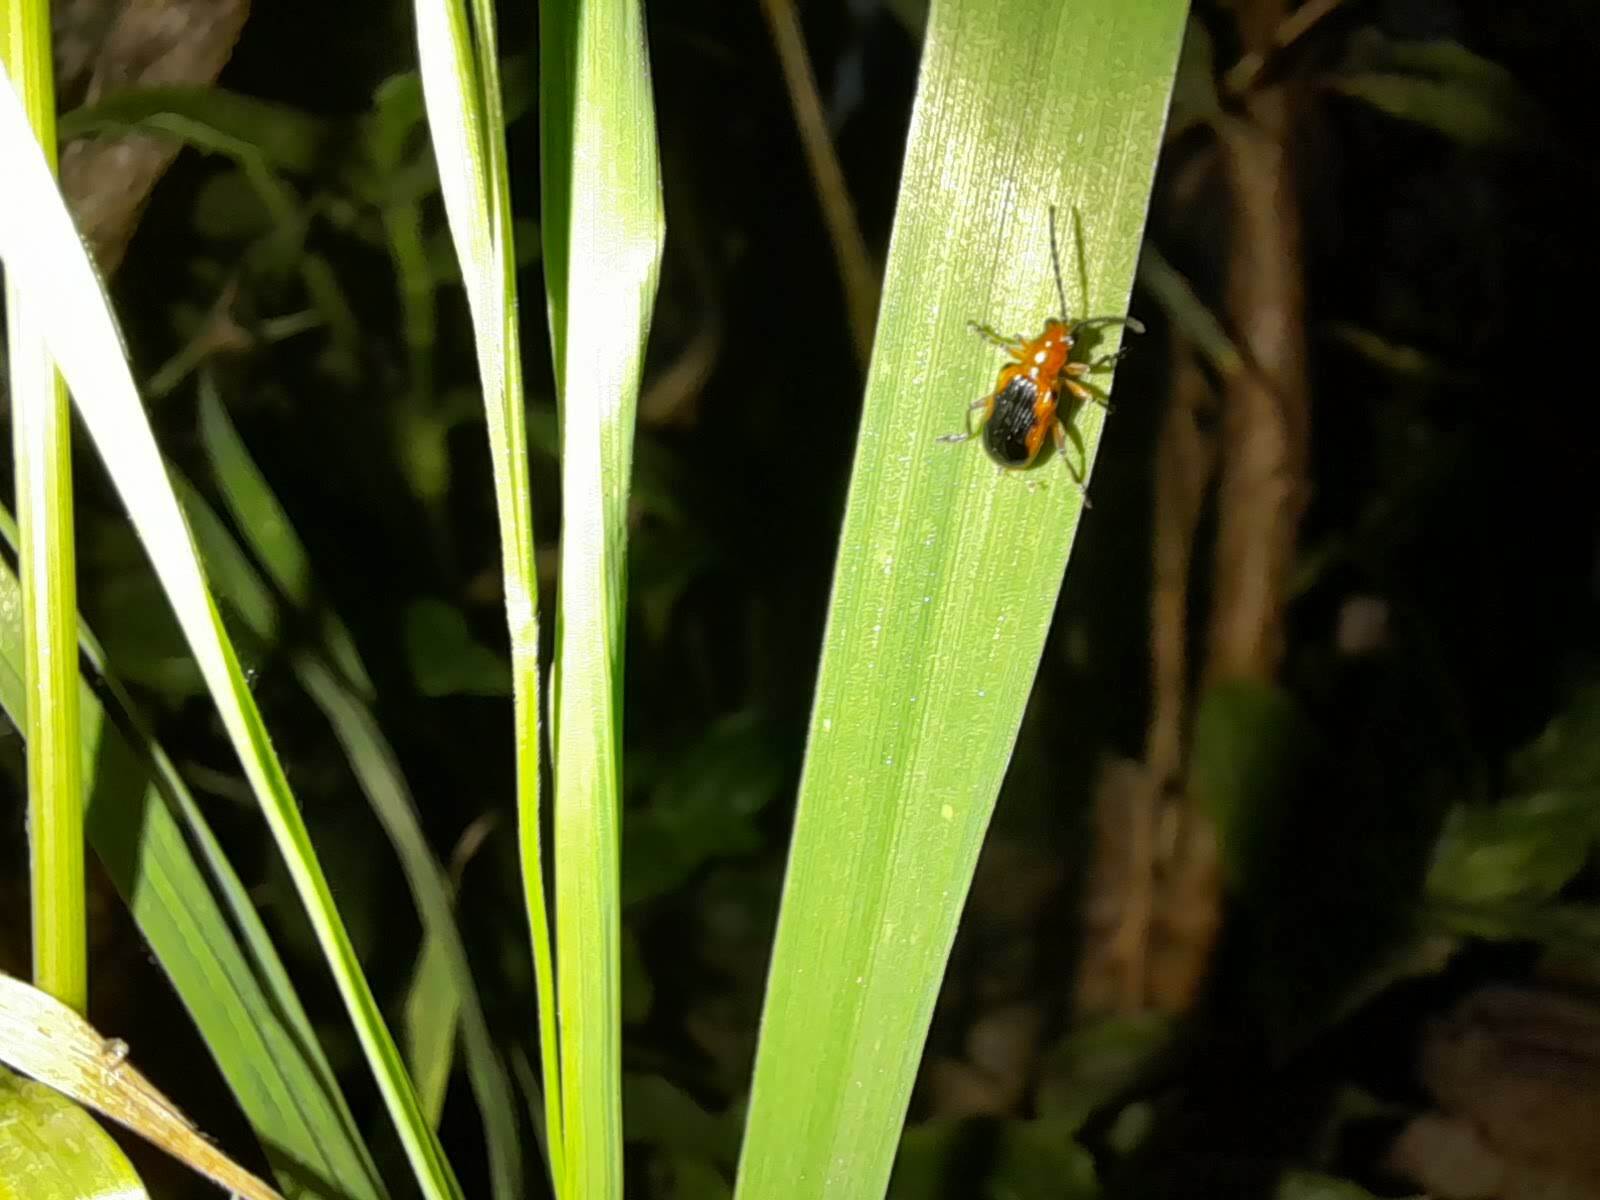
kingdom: Animalia
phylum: Arthropoda
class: Insecta
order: Coleoptera
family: Chrysomelidae
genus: Neolema
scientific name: Neolema dorsalis
